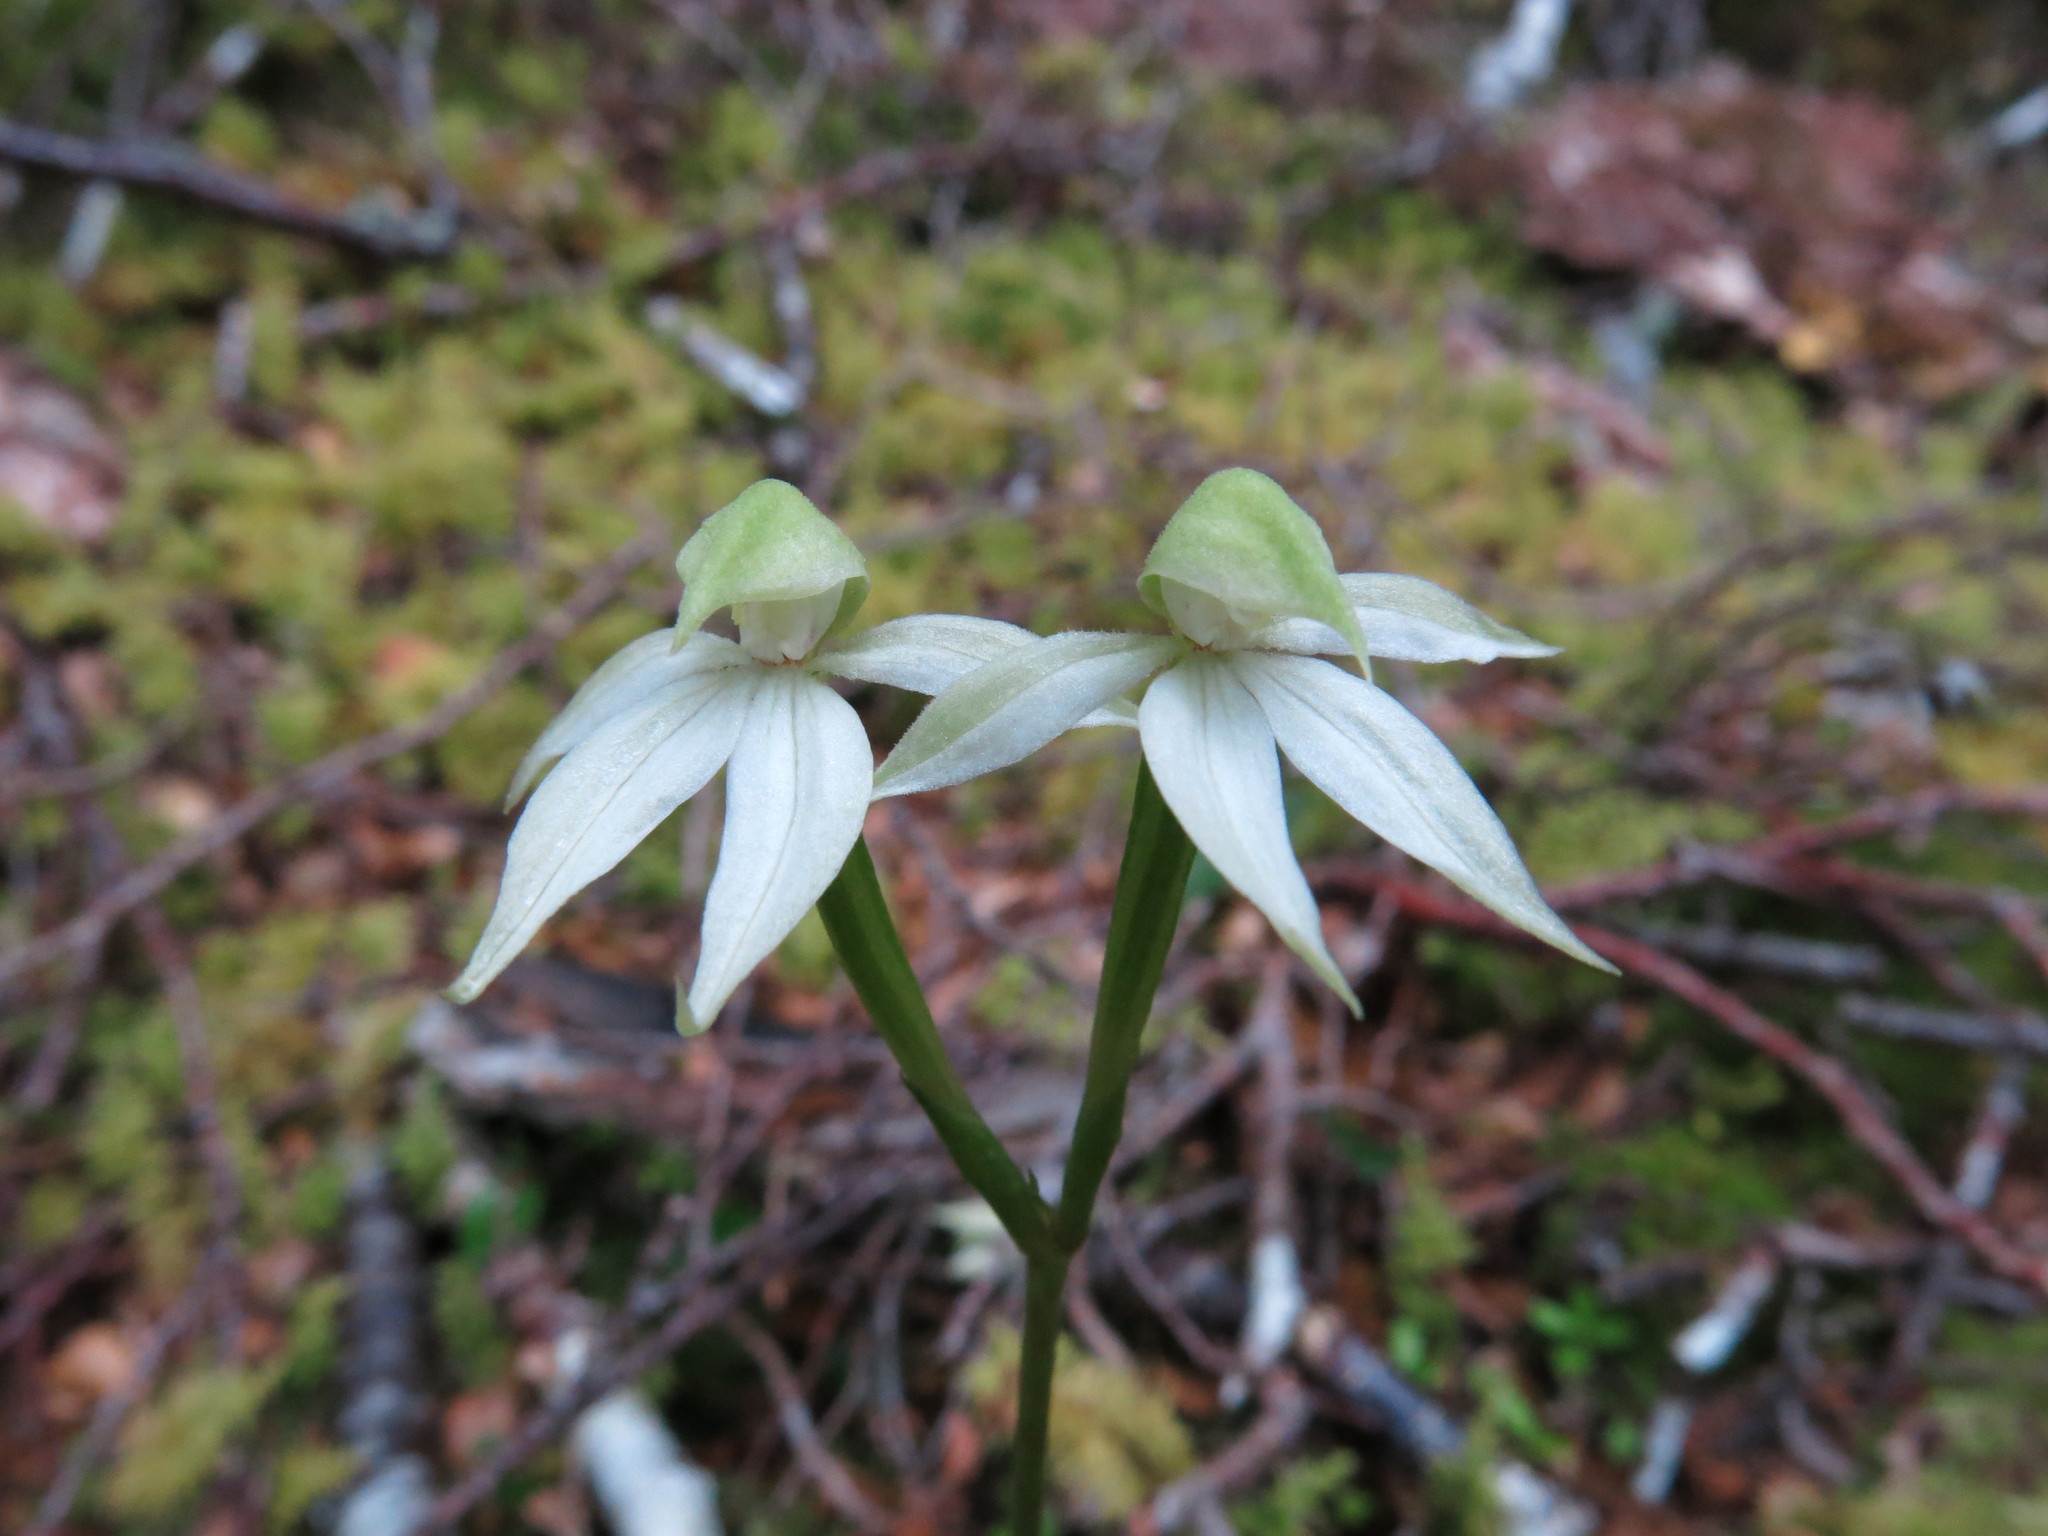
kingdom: Plantae
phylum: Tracheophyta
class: Liliopsida
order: Asparagales
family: Orchidaceae
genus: Adenochilus
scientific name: Adenochilus gracilis
